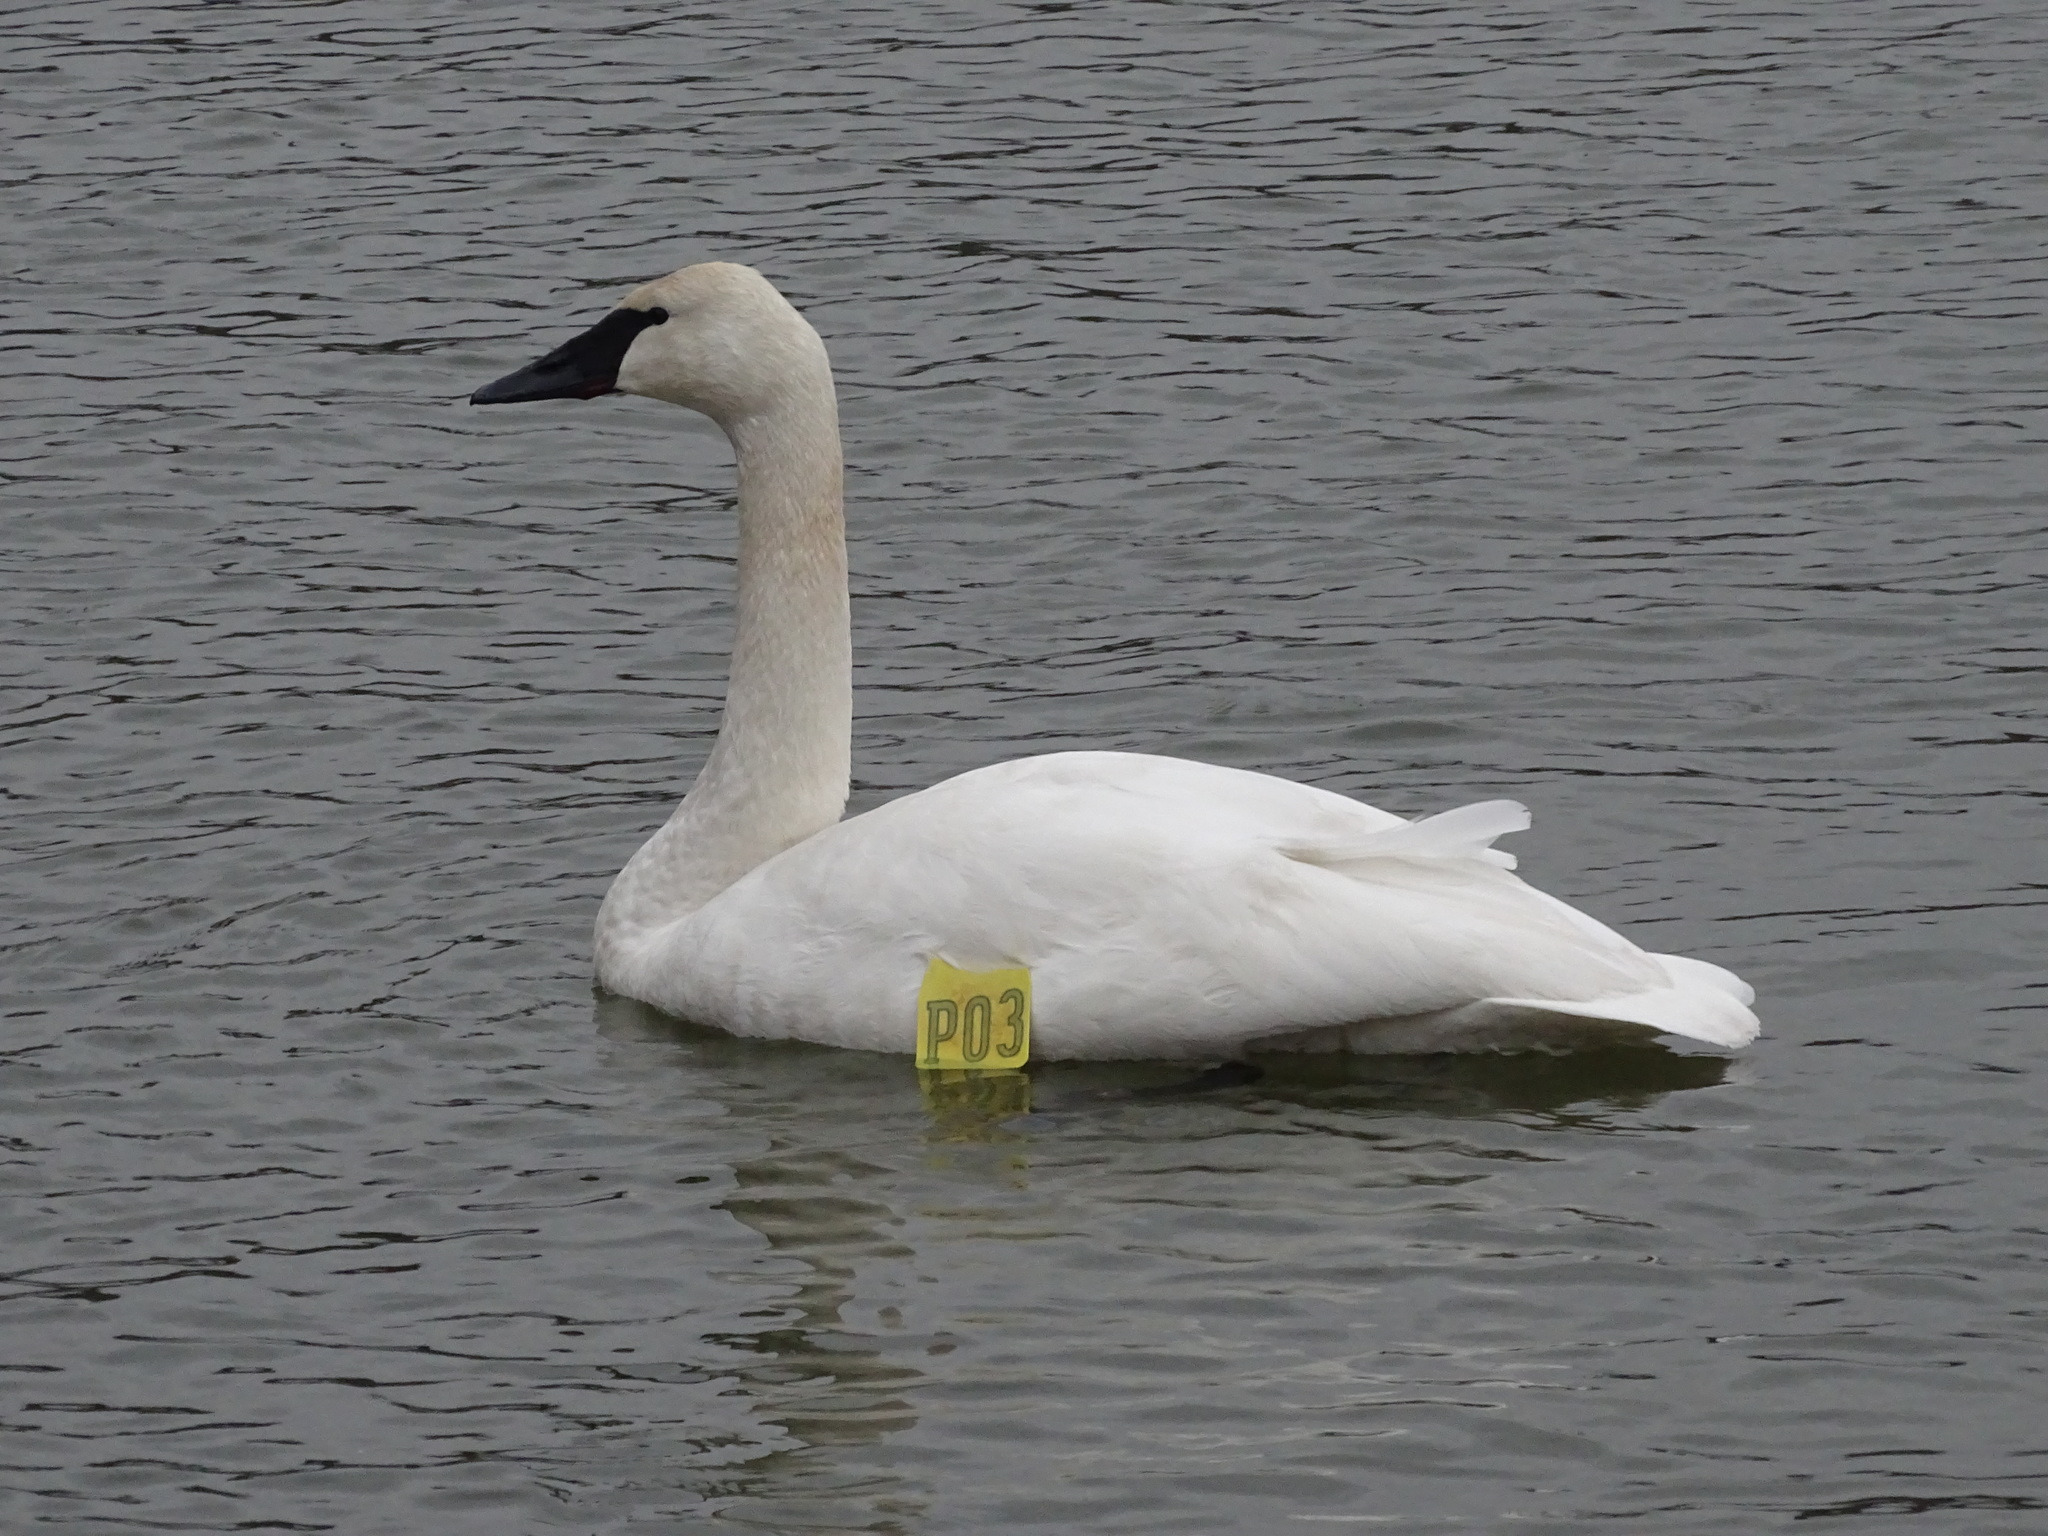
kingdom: Animalia
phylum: Chordata
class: Aves
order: Anseriformes
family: Anatidae
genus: Cygnus
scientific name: Cygnus buccinator
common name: Trumpeter swan
